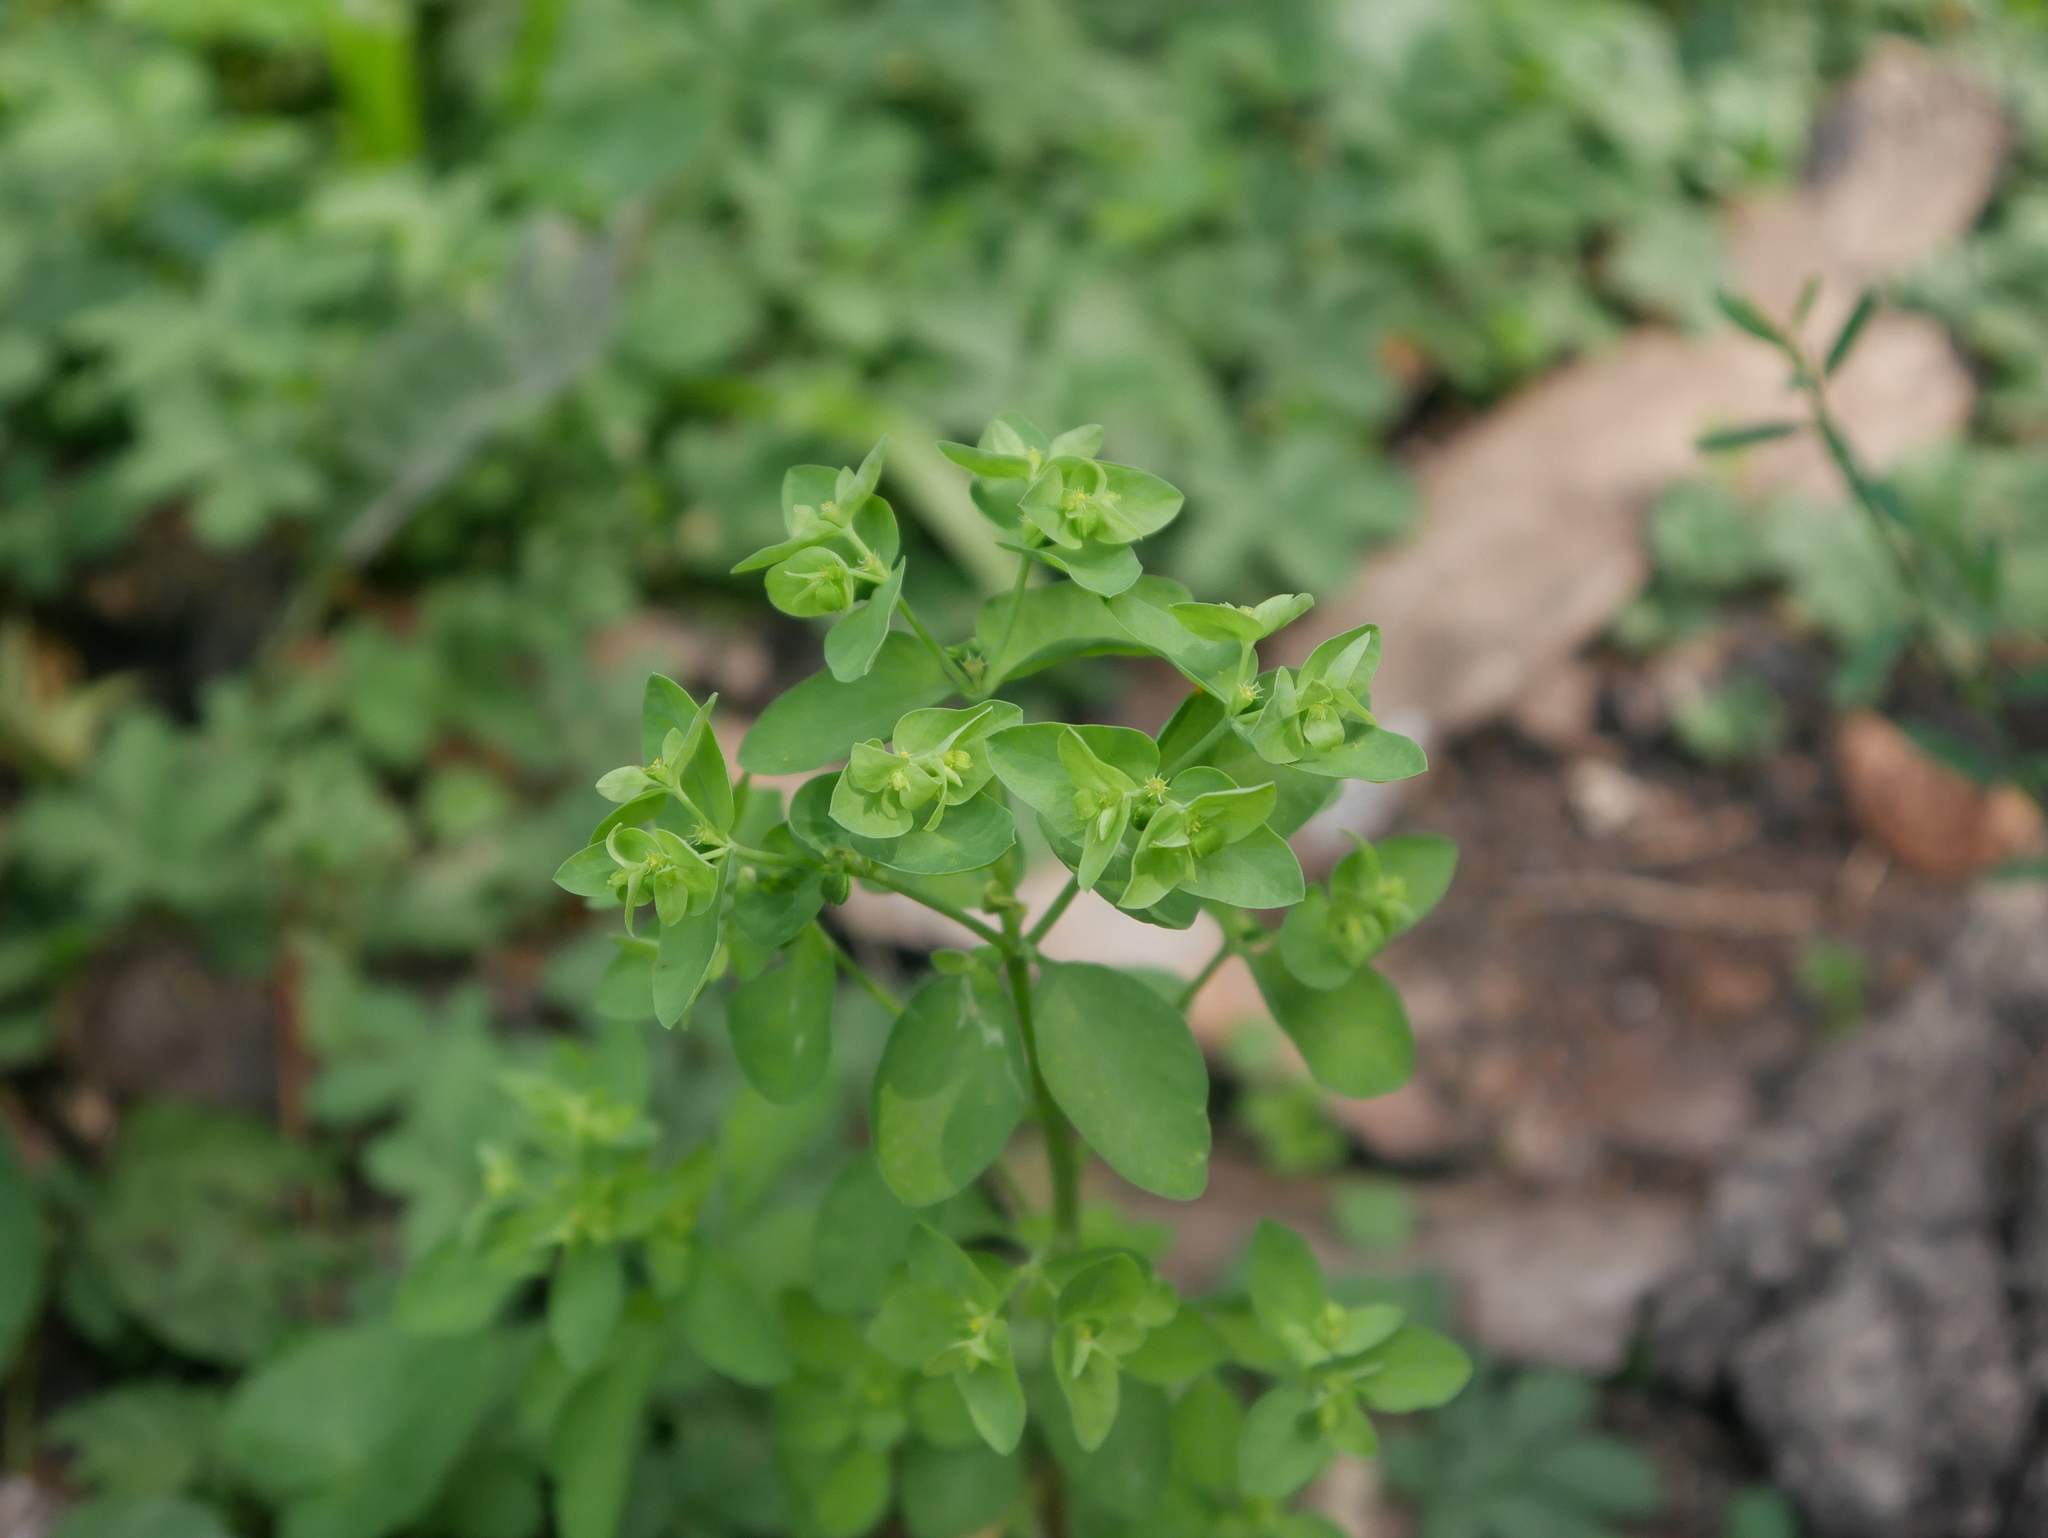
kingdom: Plantae
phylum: Tracheophyta
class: Magnoliopsida
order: Malpighiales
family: Euphorbiaceae
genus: Euphorbia
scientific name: Euphorbia peplus
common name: Petty spurge
